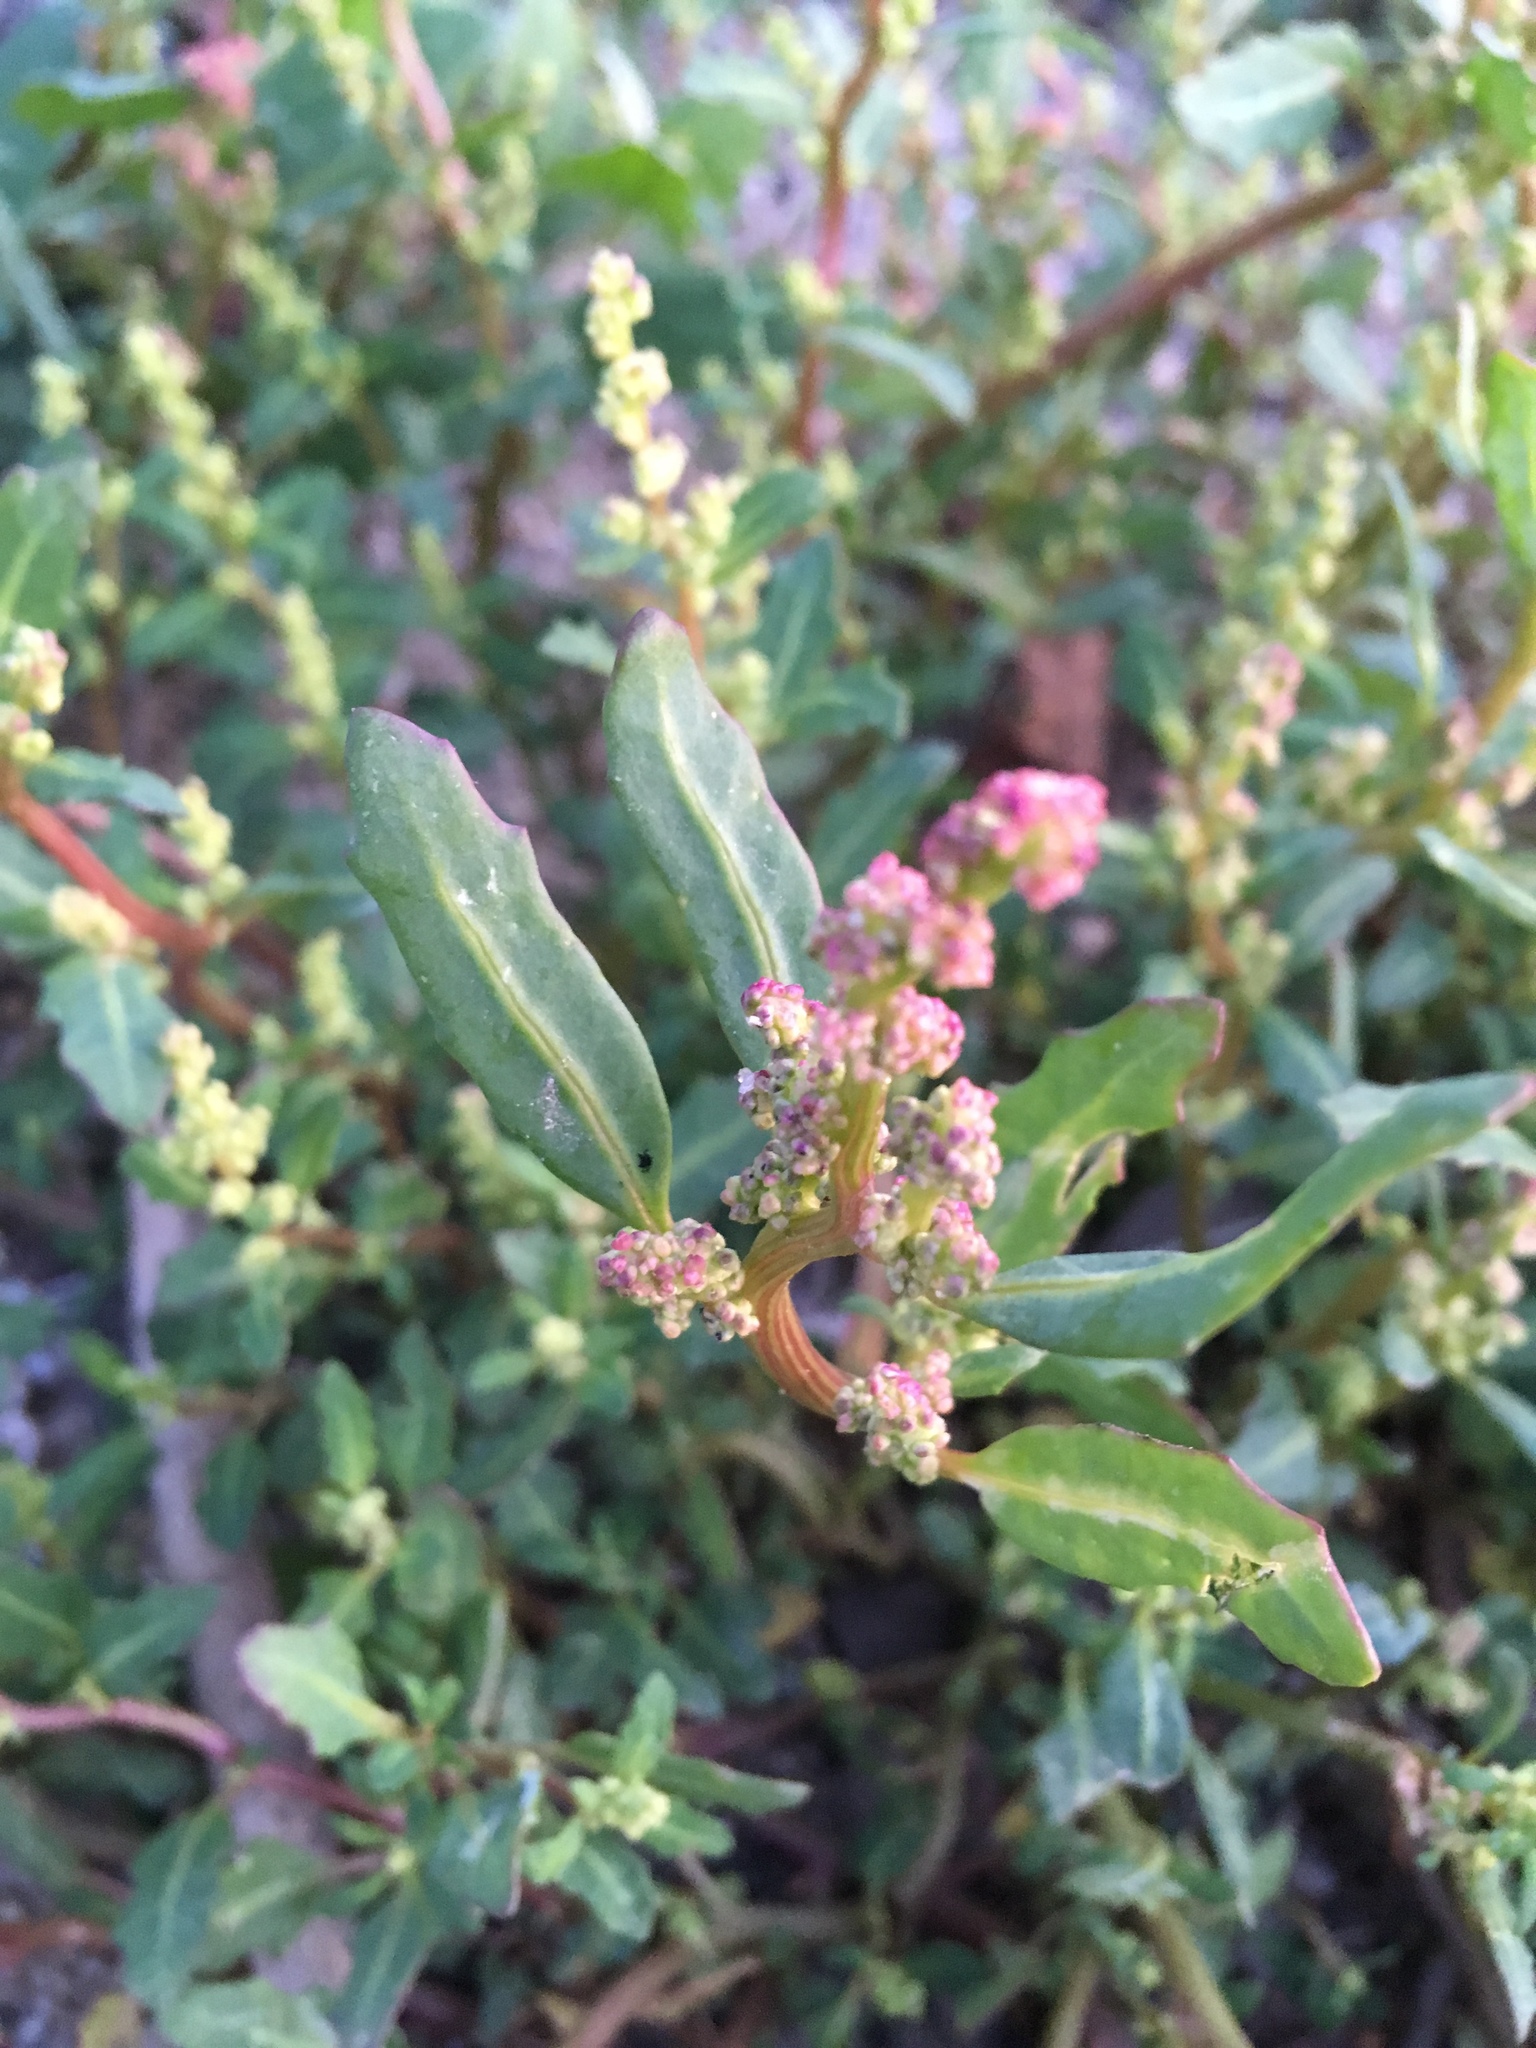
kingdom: Plantae
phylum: Tracheophyta
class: Magnoliopsida
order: Caryophyllales
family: Amaranthaceae
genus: Oxybasis
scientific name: Oxybasis glauca
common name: Glaucous goosefoot
